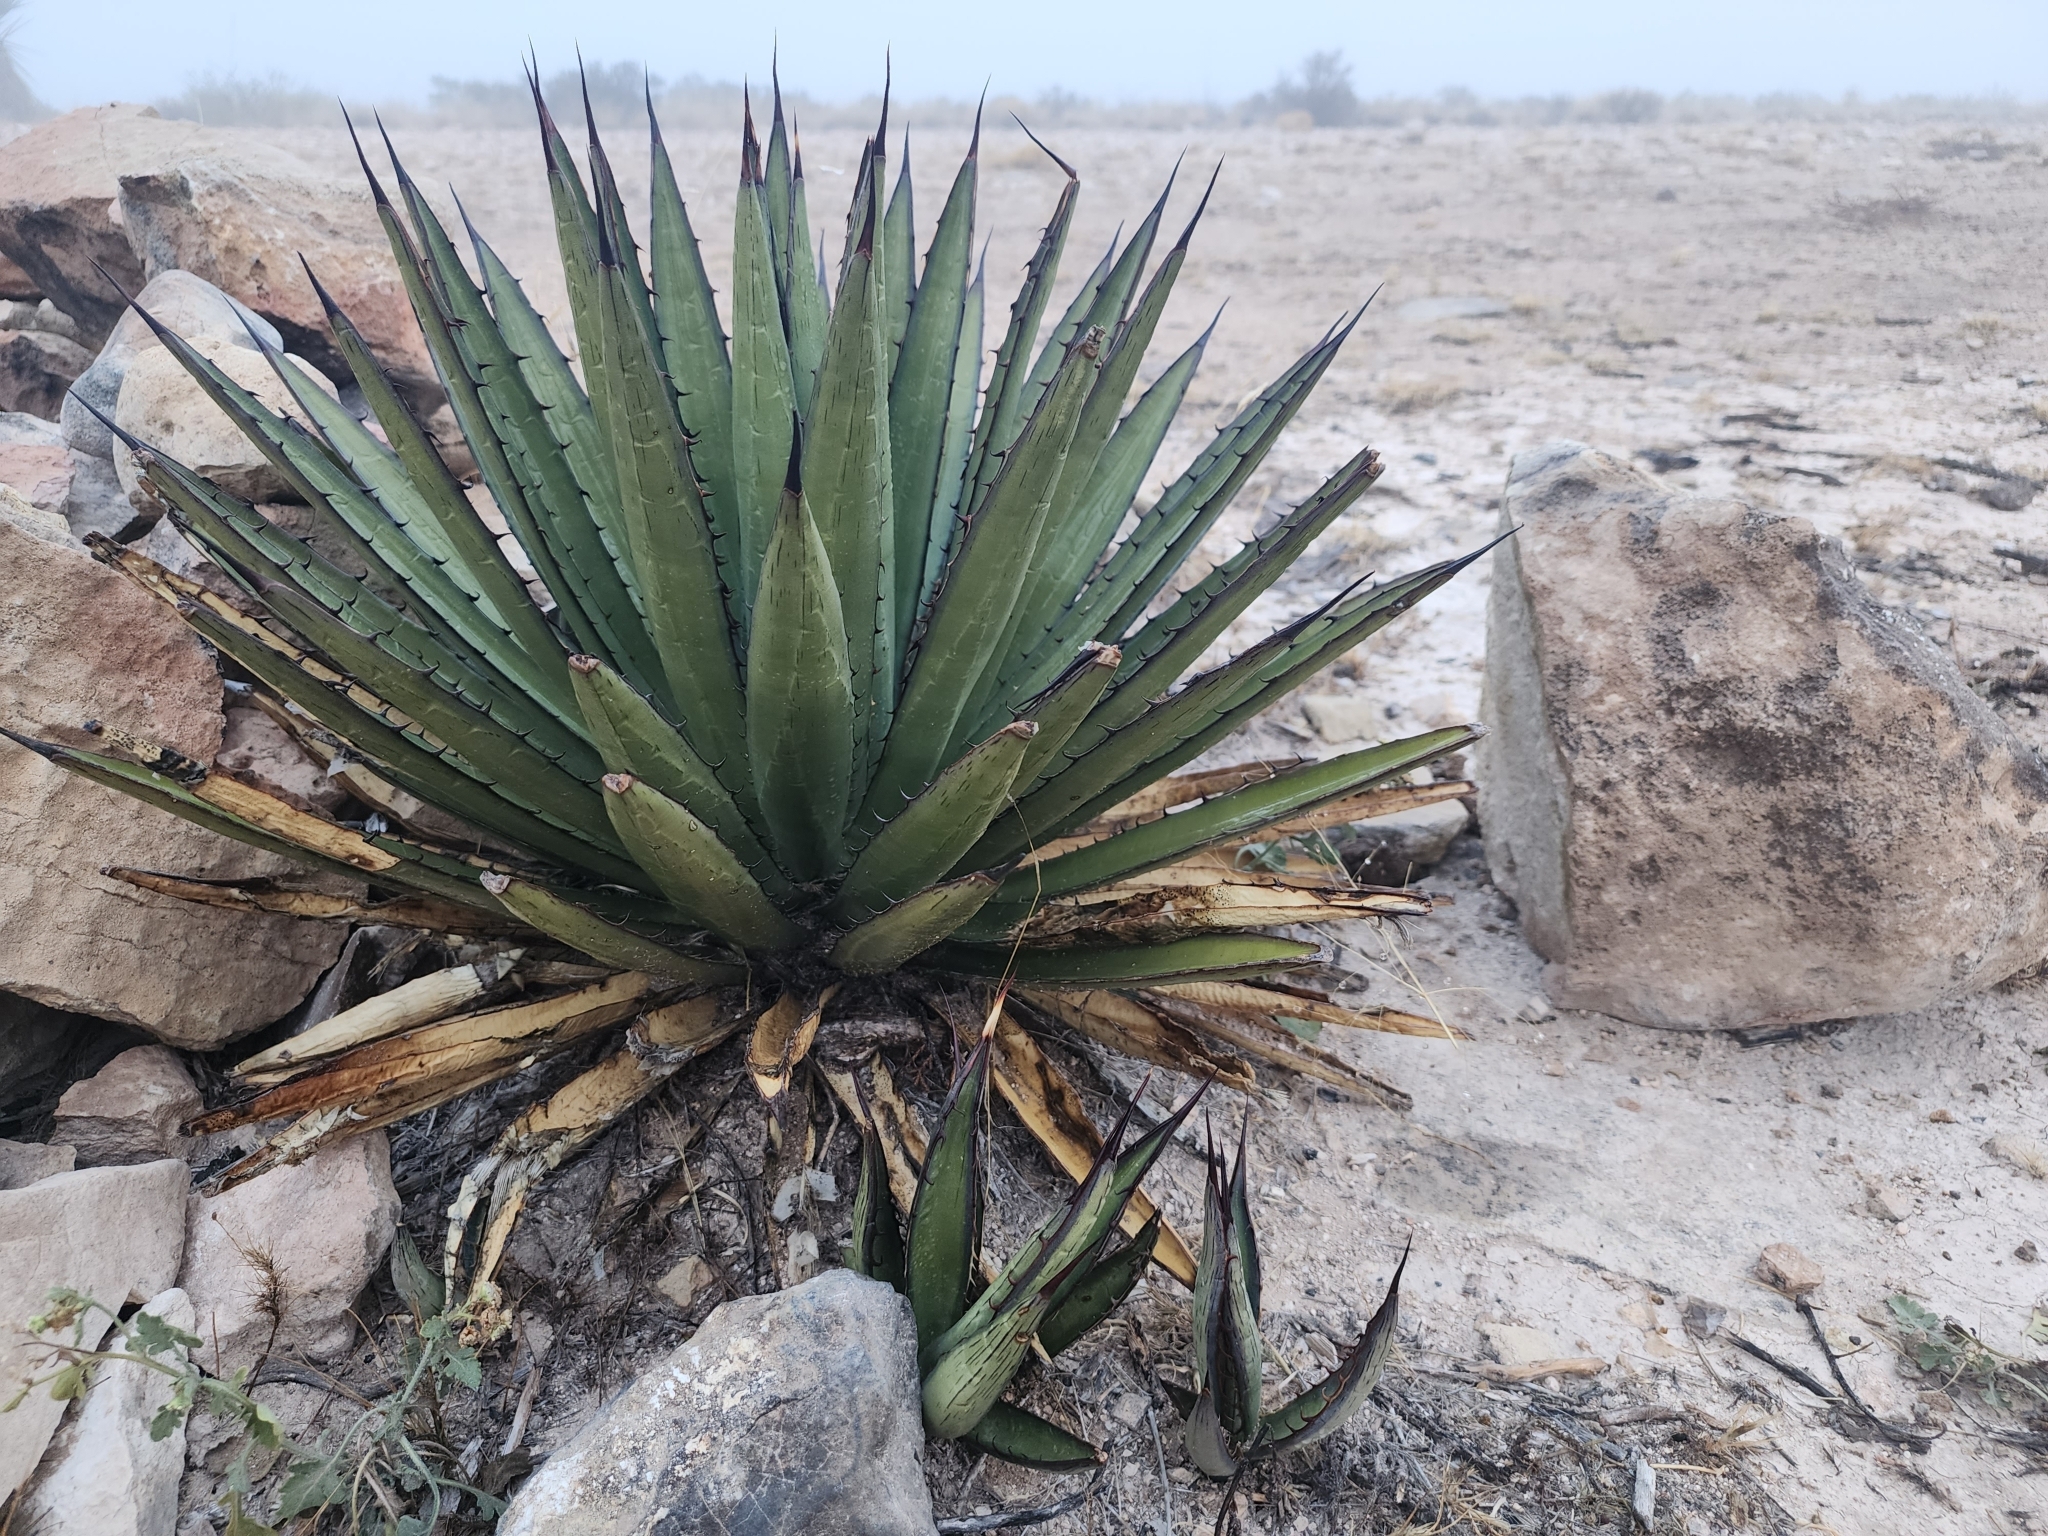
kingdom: Plantae
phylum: Tracheophyta
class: Liliopsida
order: Asparagales
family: Asparagaceae
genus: Agave
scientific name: Agave lechuguilla
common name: Lecheguilla agave
